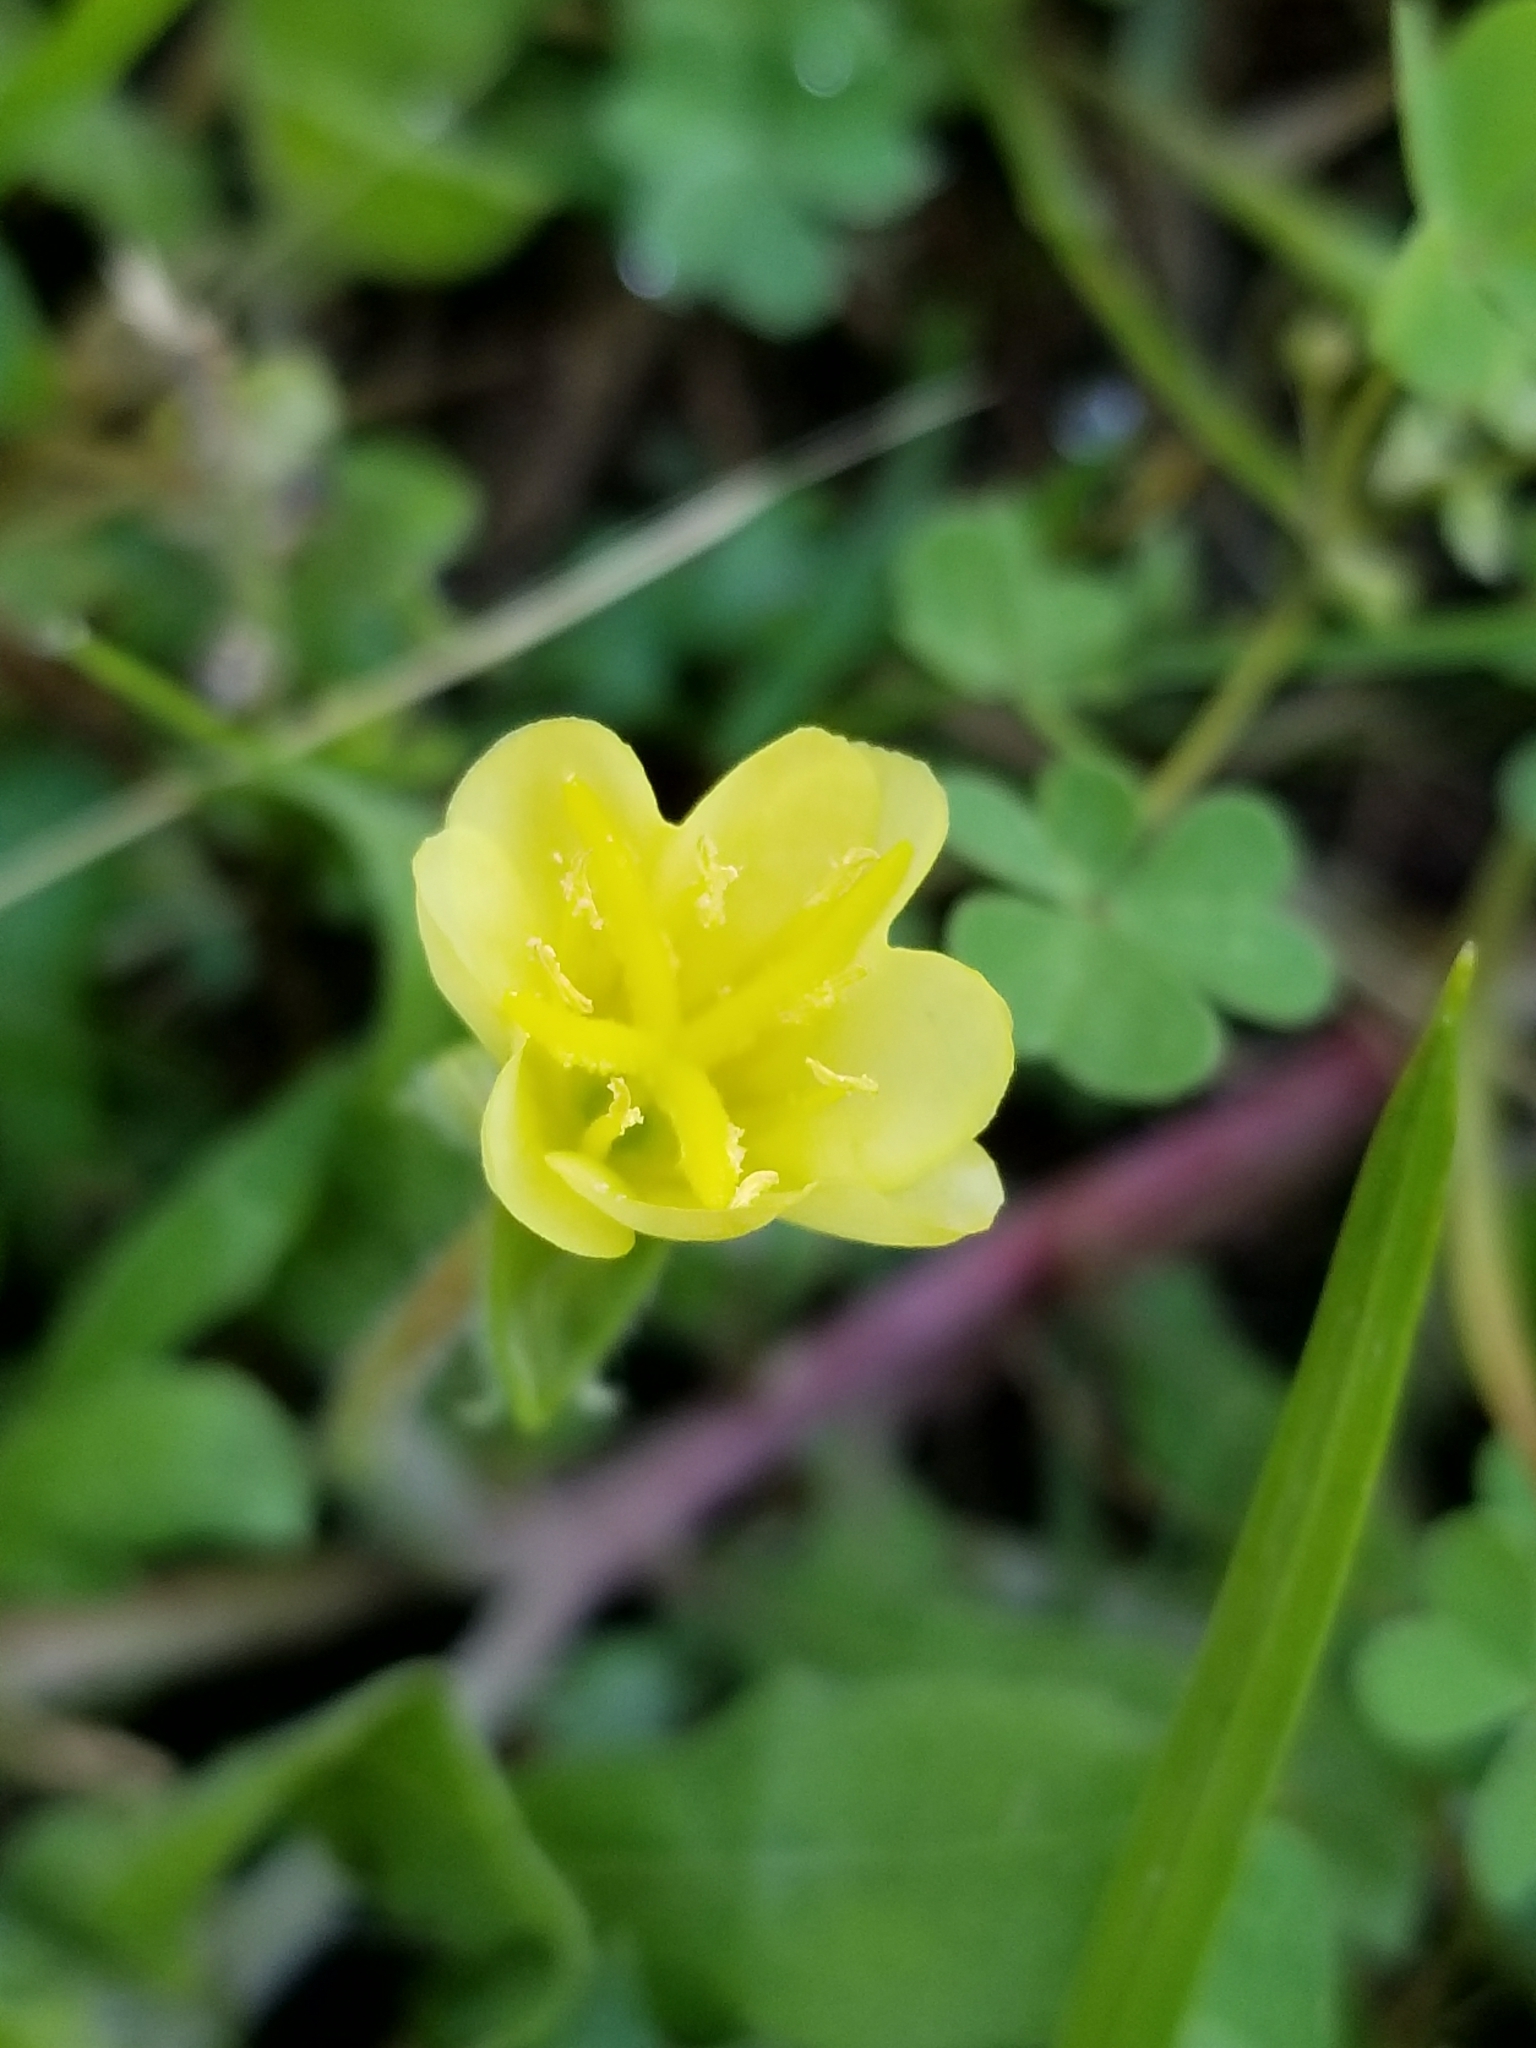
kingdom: Plantae
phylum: Tracheophyta
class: Magnoliopsida
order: Myrtales
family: Onagraceae
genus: Oenothera
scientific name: Oenothera laciniata
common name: Cut-leaved evening-primrose
